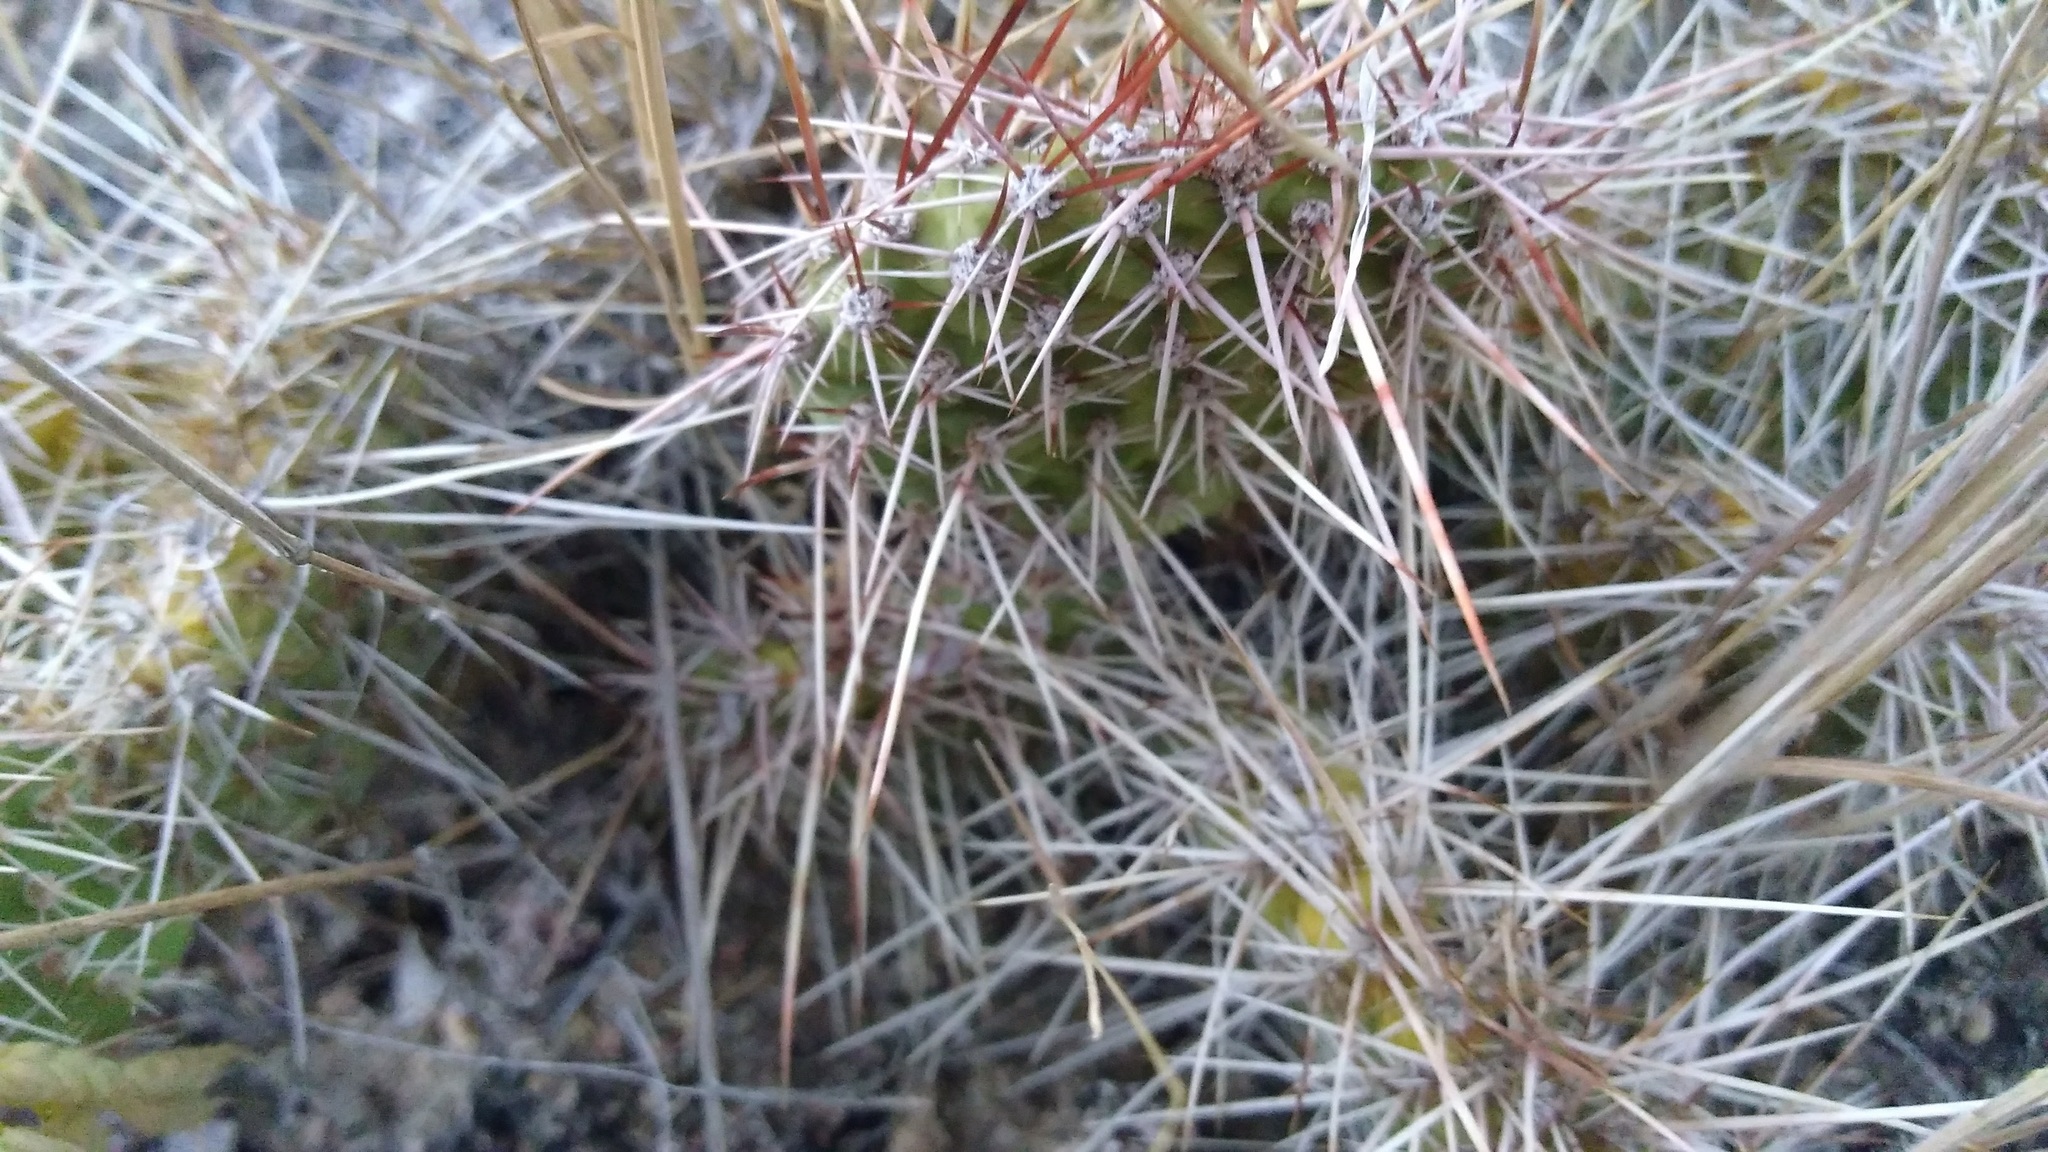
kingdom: Plantae
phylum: Tracheophyta
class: Magnoliopsida
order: Caryophyllales
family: Cactaceae
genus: Opuntia
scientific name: Opuntia polyacantha
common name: Plains prickly-pear
